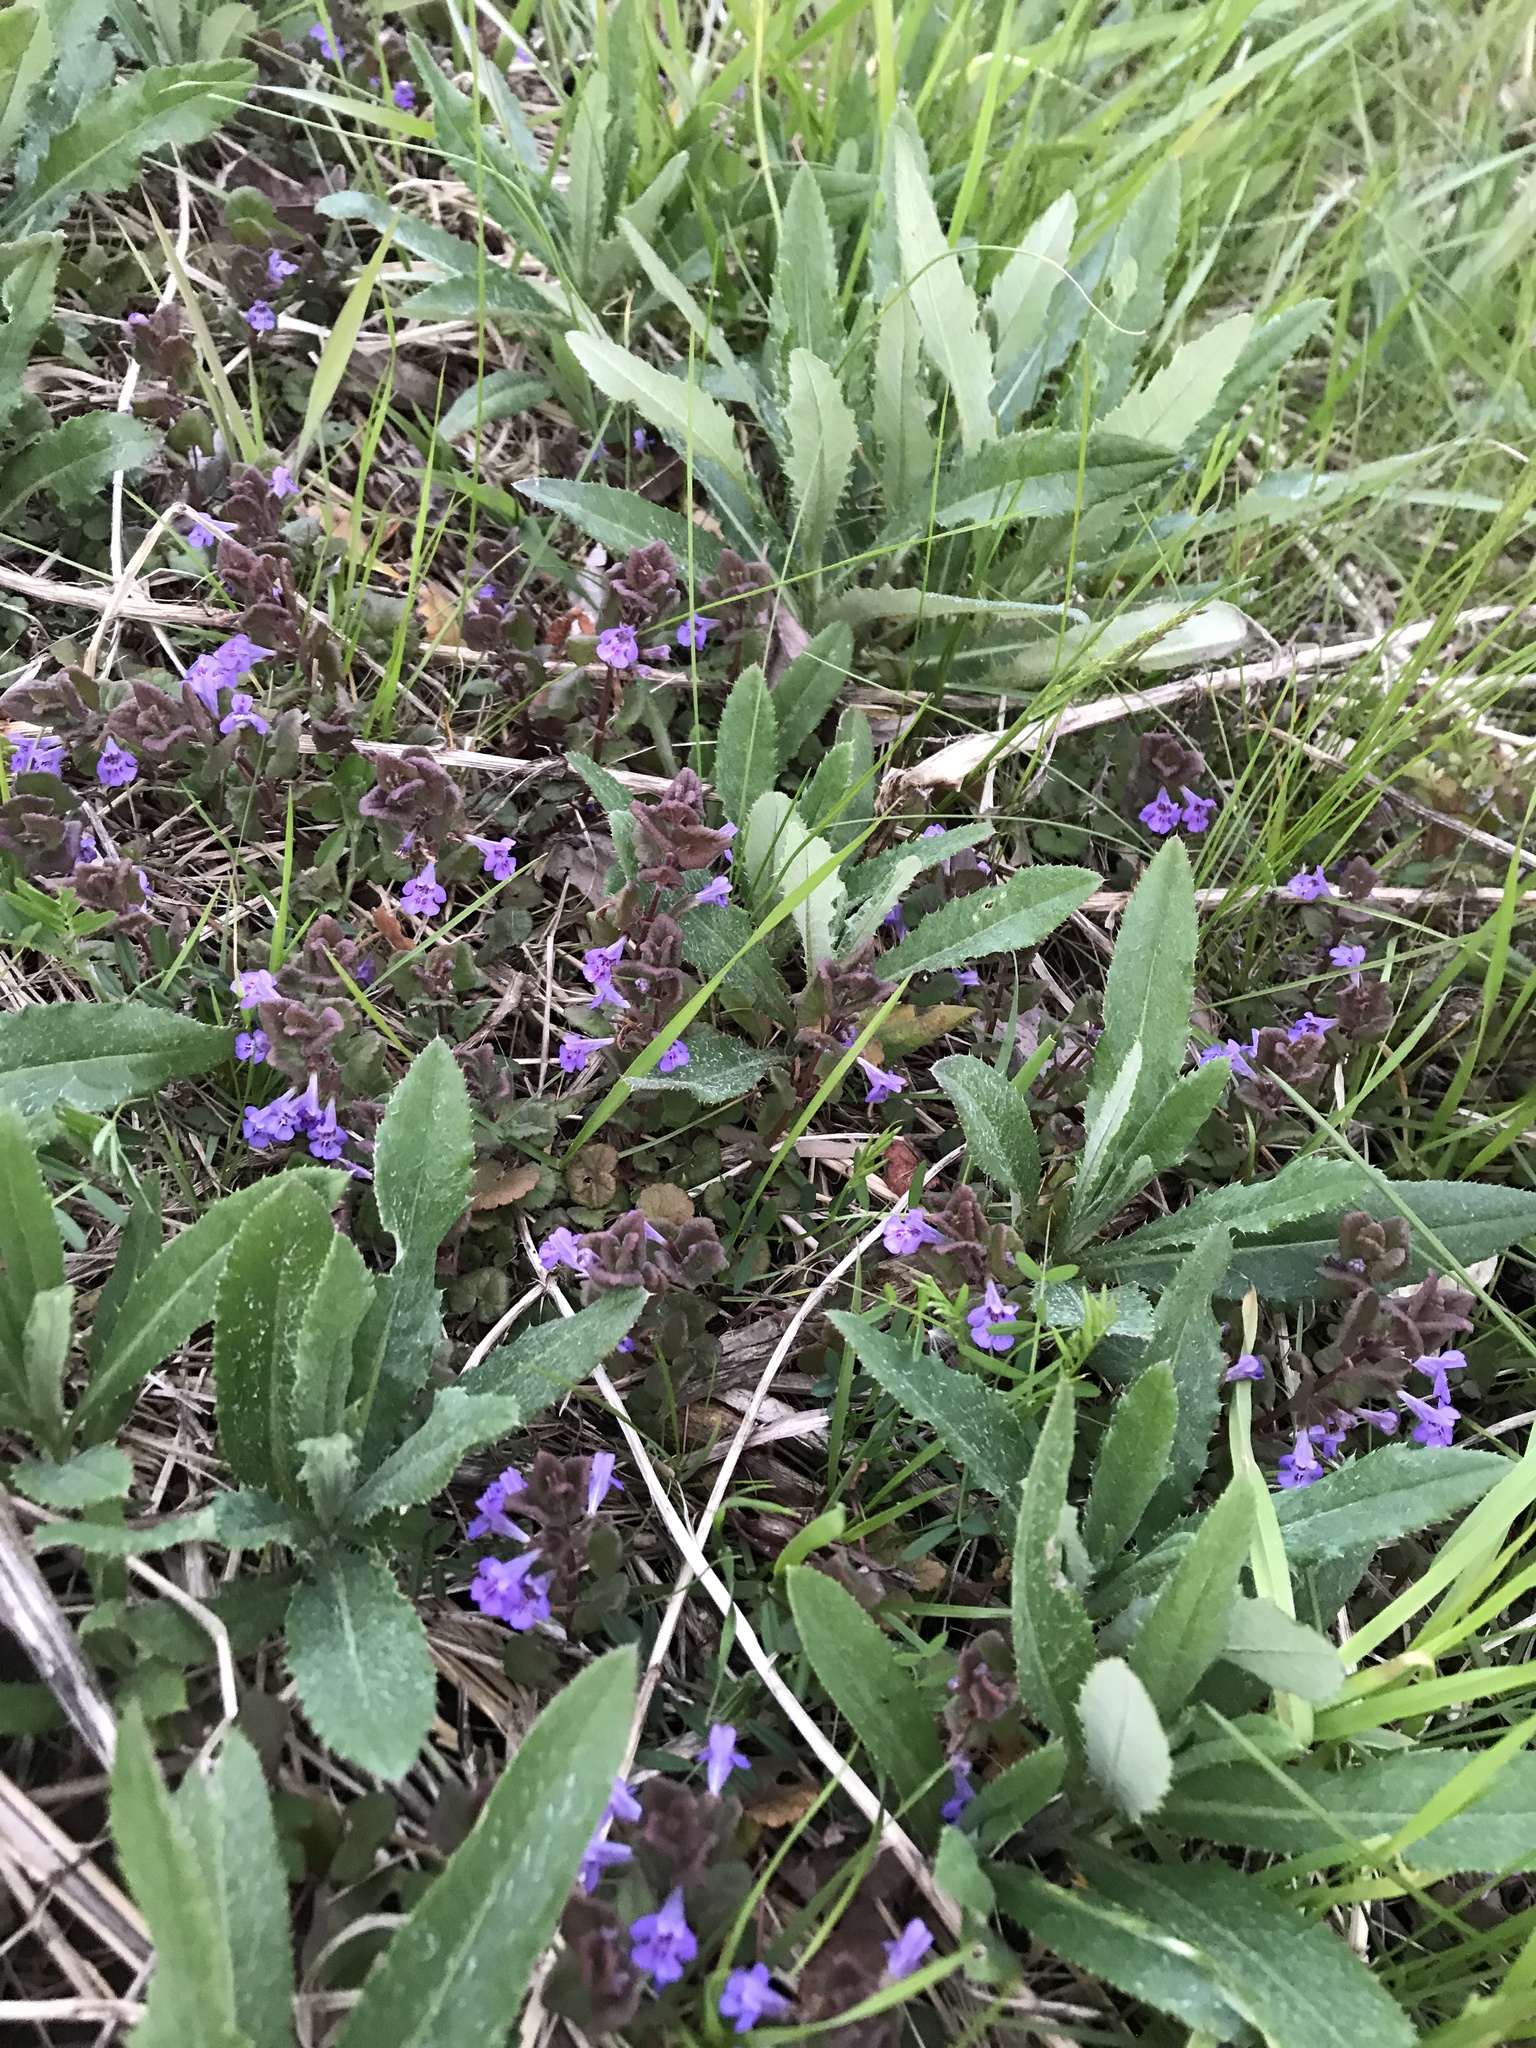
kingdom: Plantae
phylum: Tracheophyta
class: Magnoliopsida
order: Lamiales
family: Lamiaceae
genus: Glechoma
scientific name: Glechoma hederacea
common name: Ground ivy
